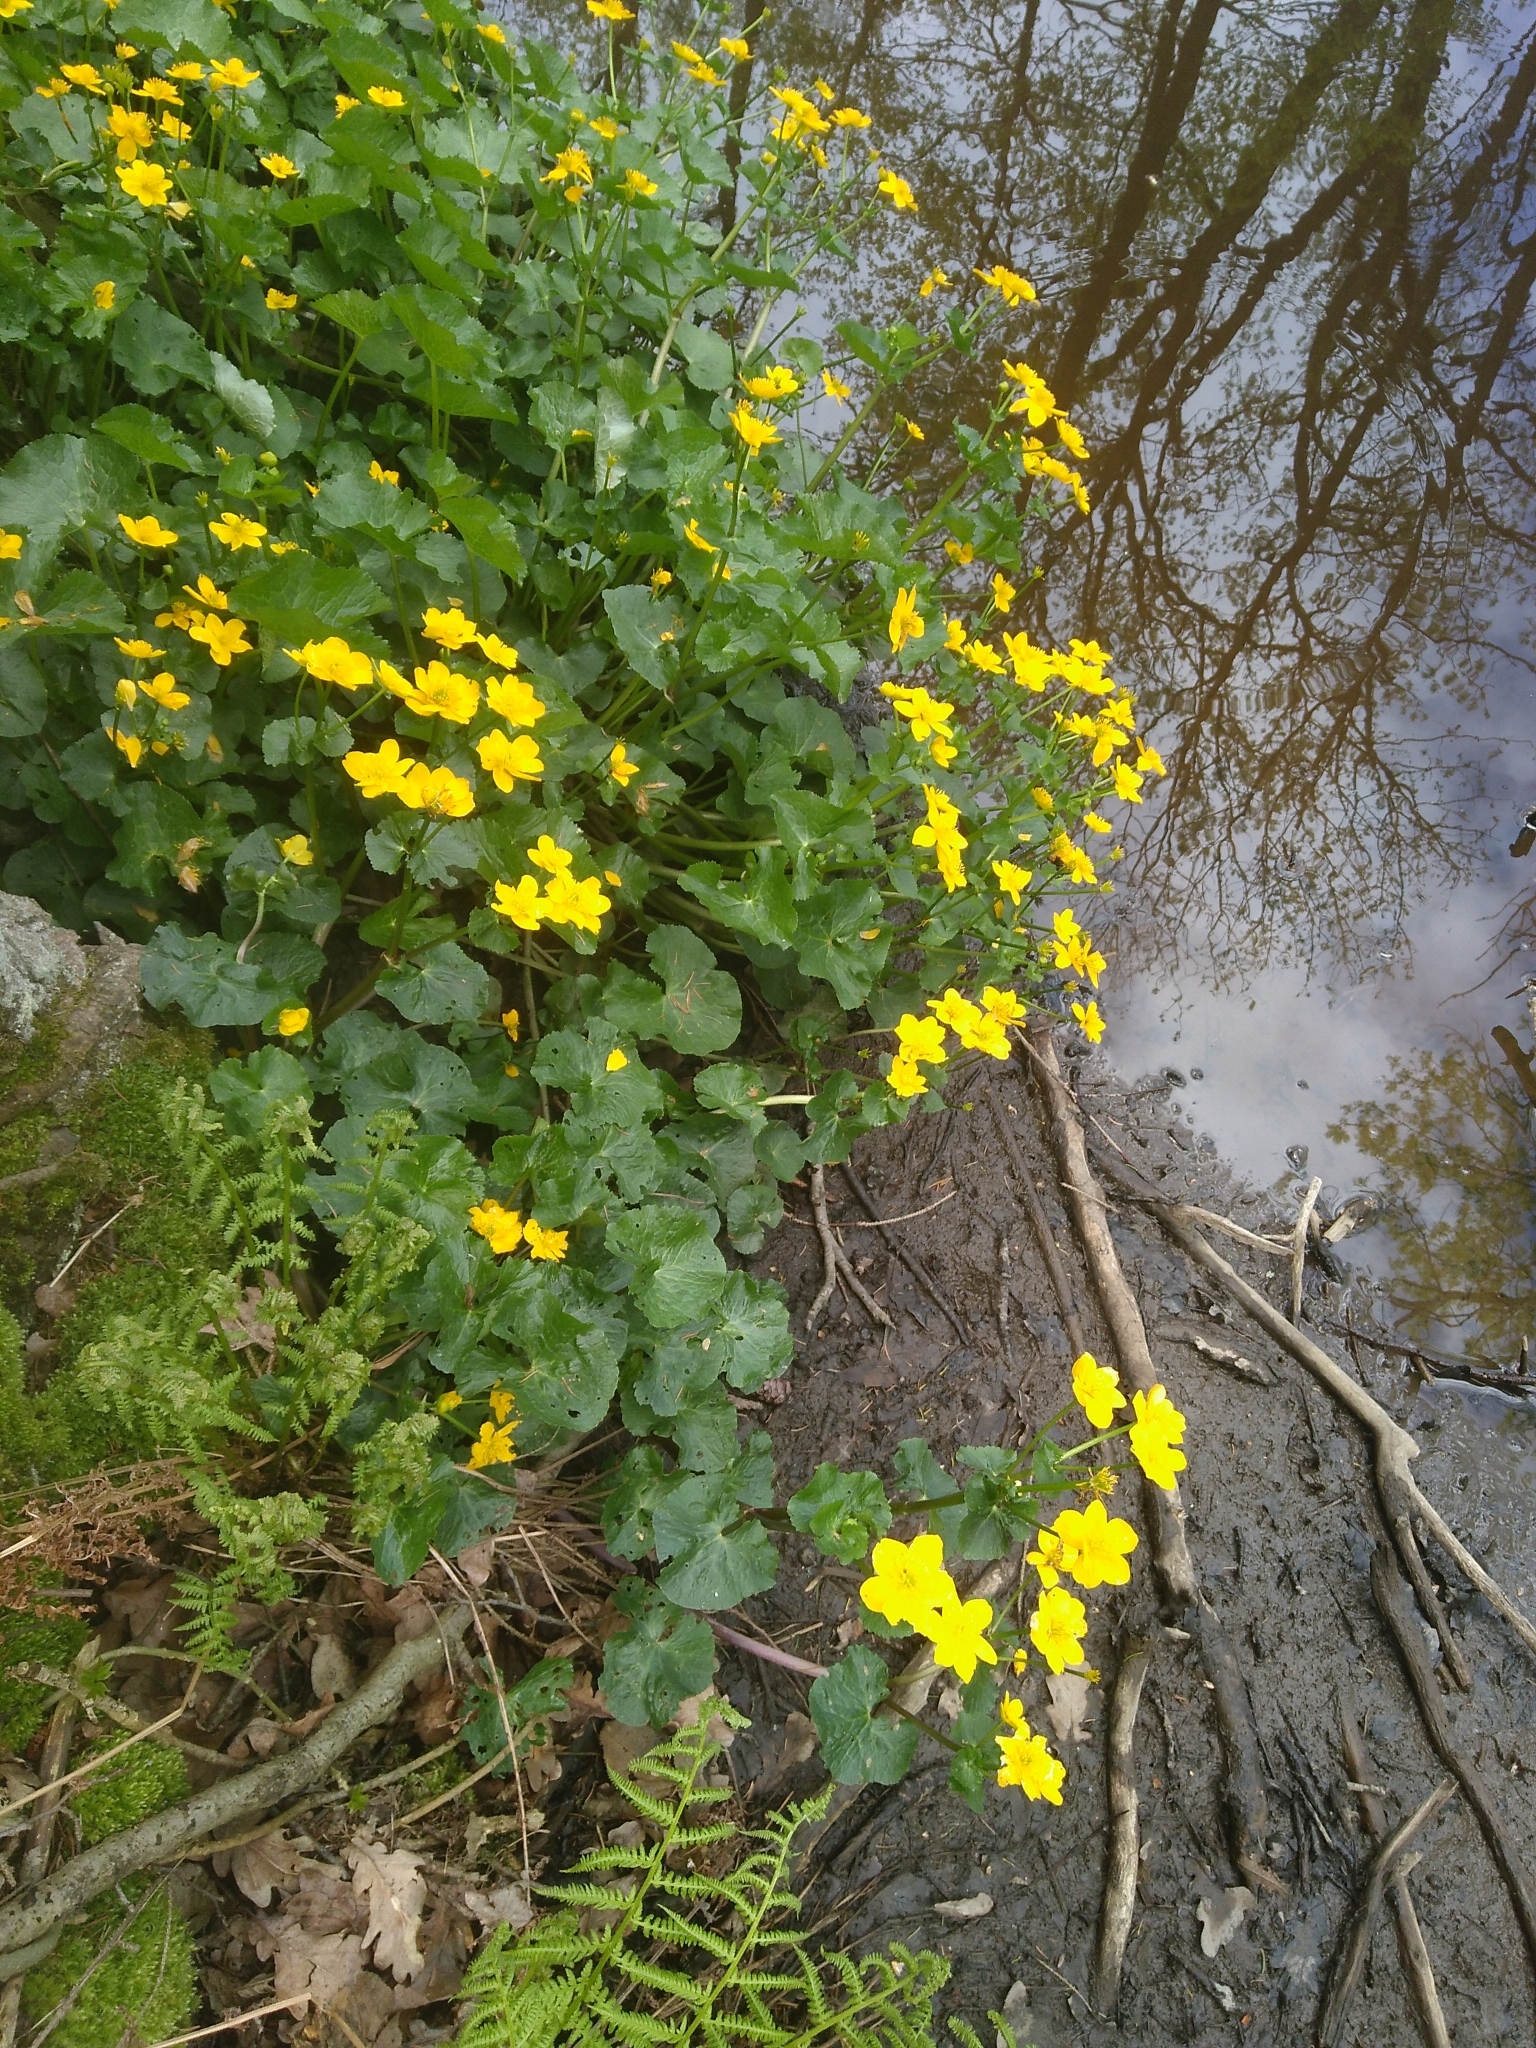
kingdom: Plantae
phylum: Tracheophyta
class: Magnoliopsida
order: Ranunculales
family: Ranunculaceae
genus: Caltha
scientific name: Caltha palustris
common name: Marsh marigold
